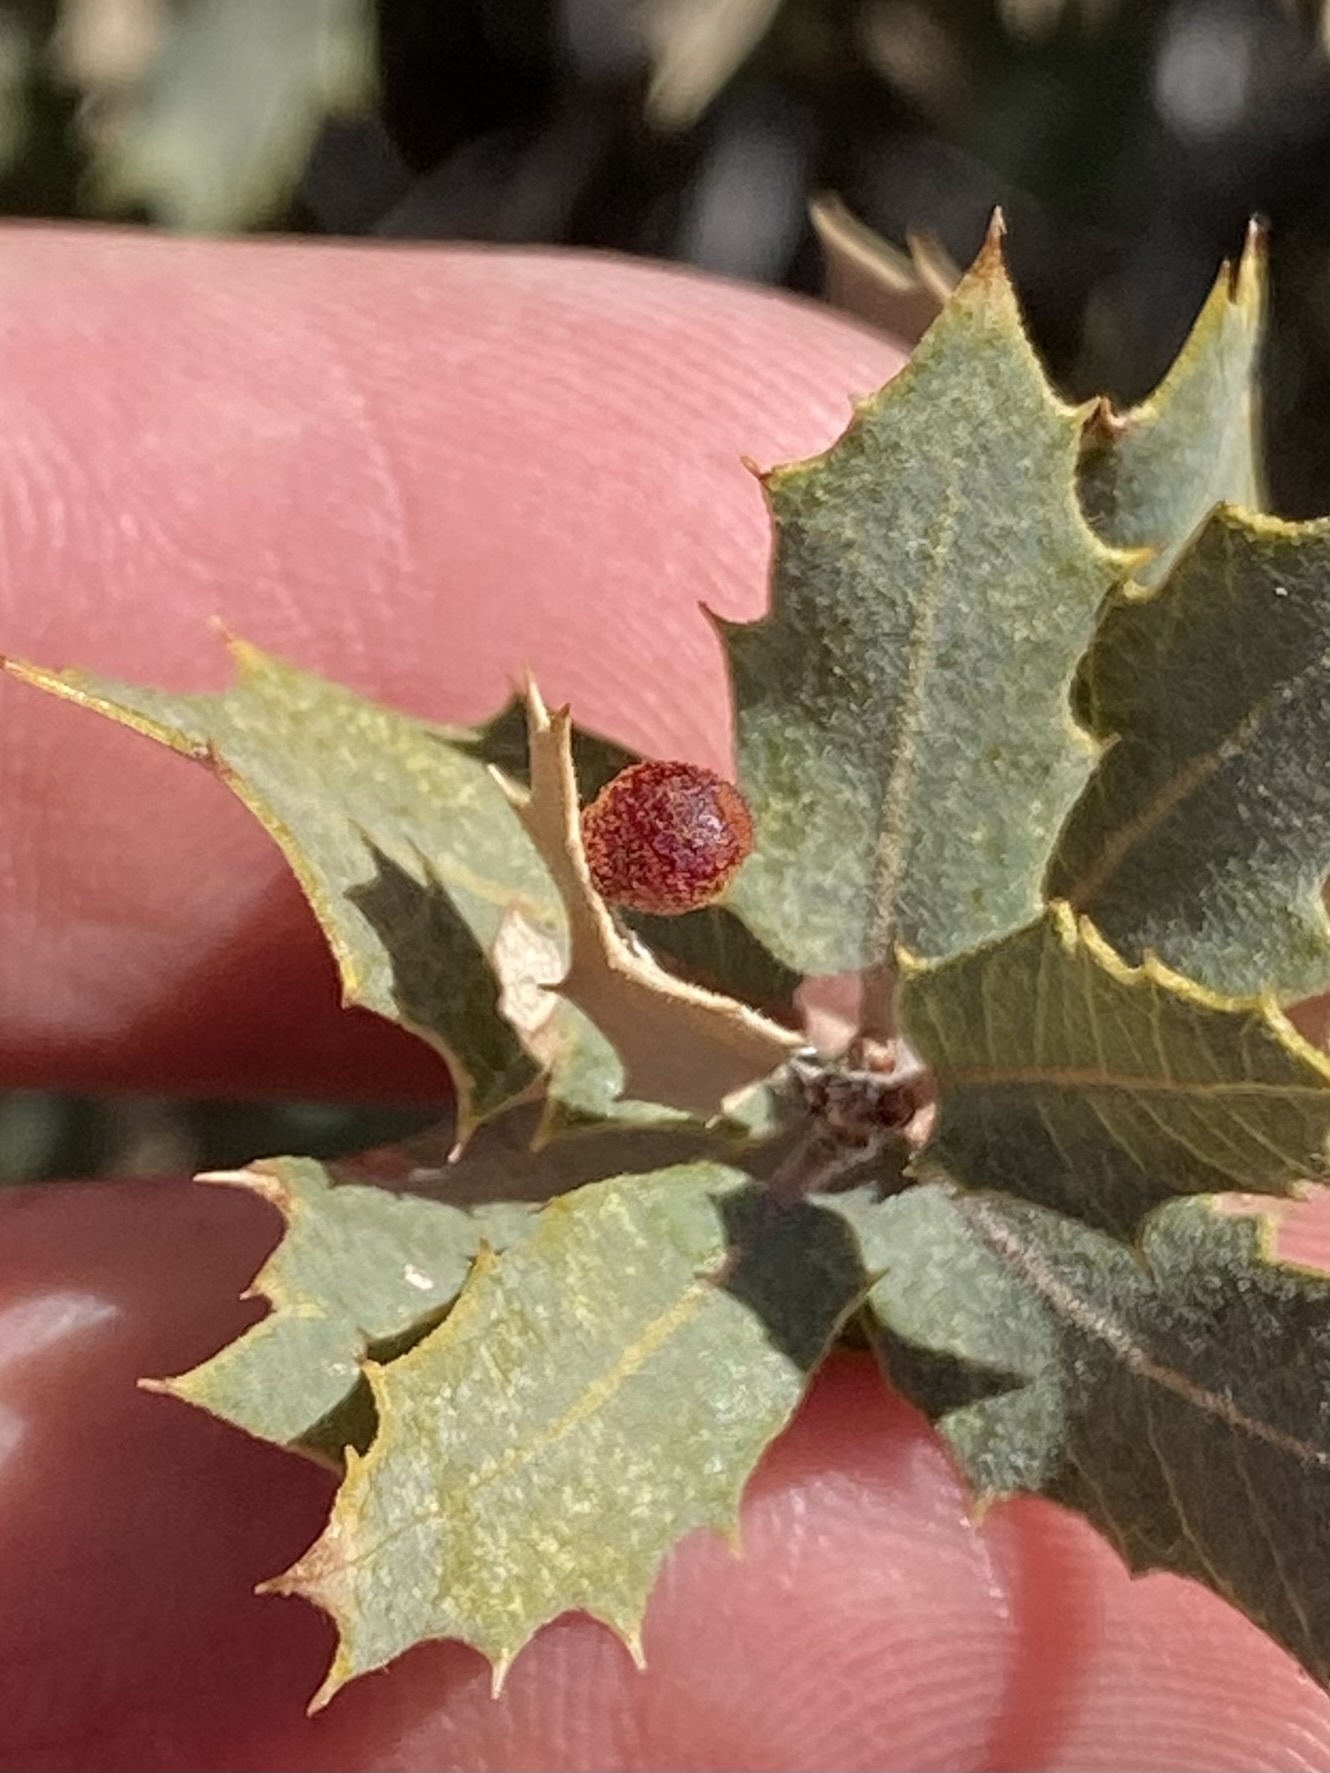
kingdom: Animalia
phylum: Arthropoda
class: Insecta
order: Hymenoptera
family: Cynipidae
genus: Andricus
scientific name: Andricus
